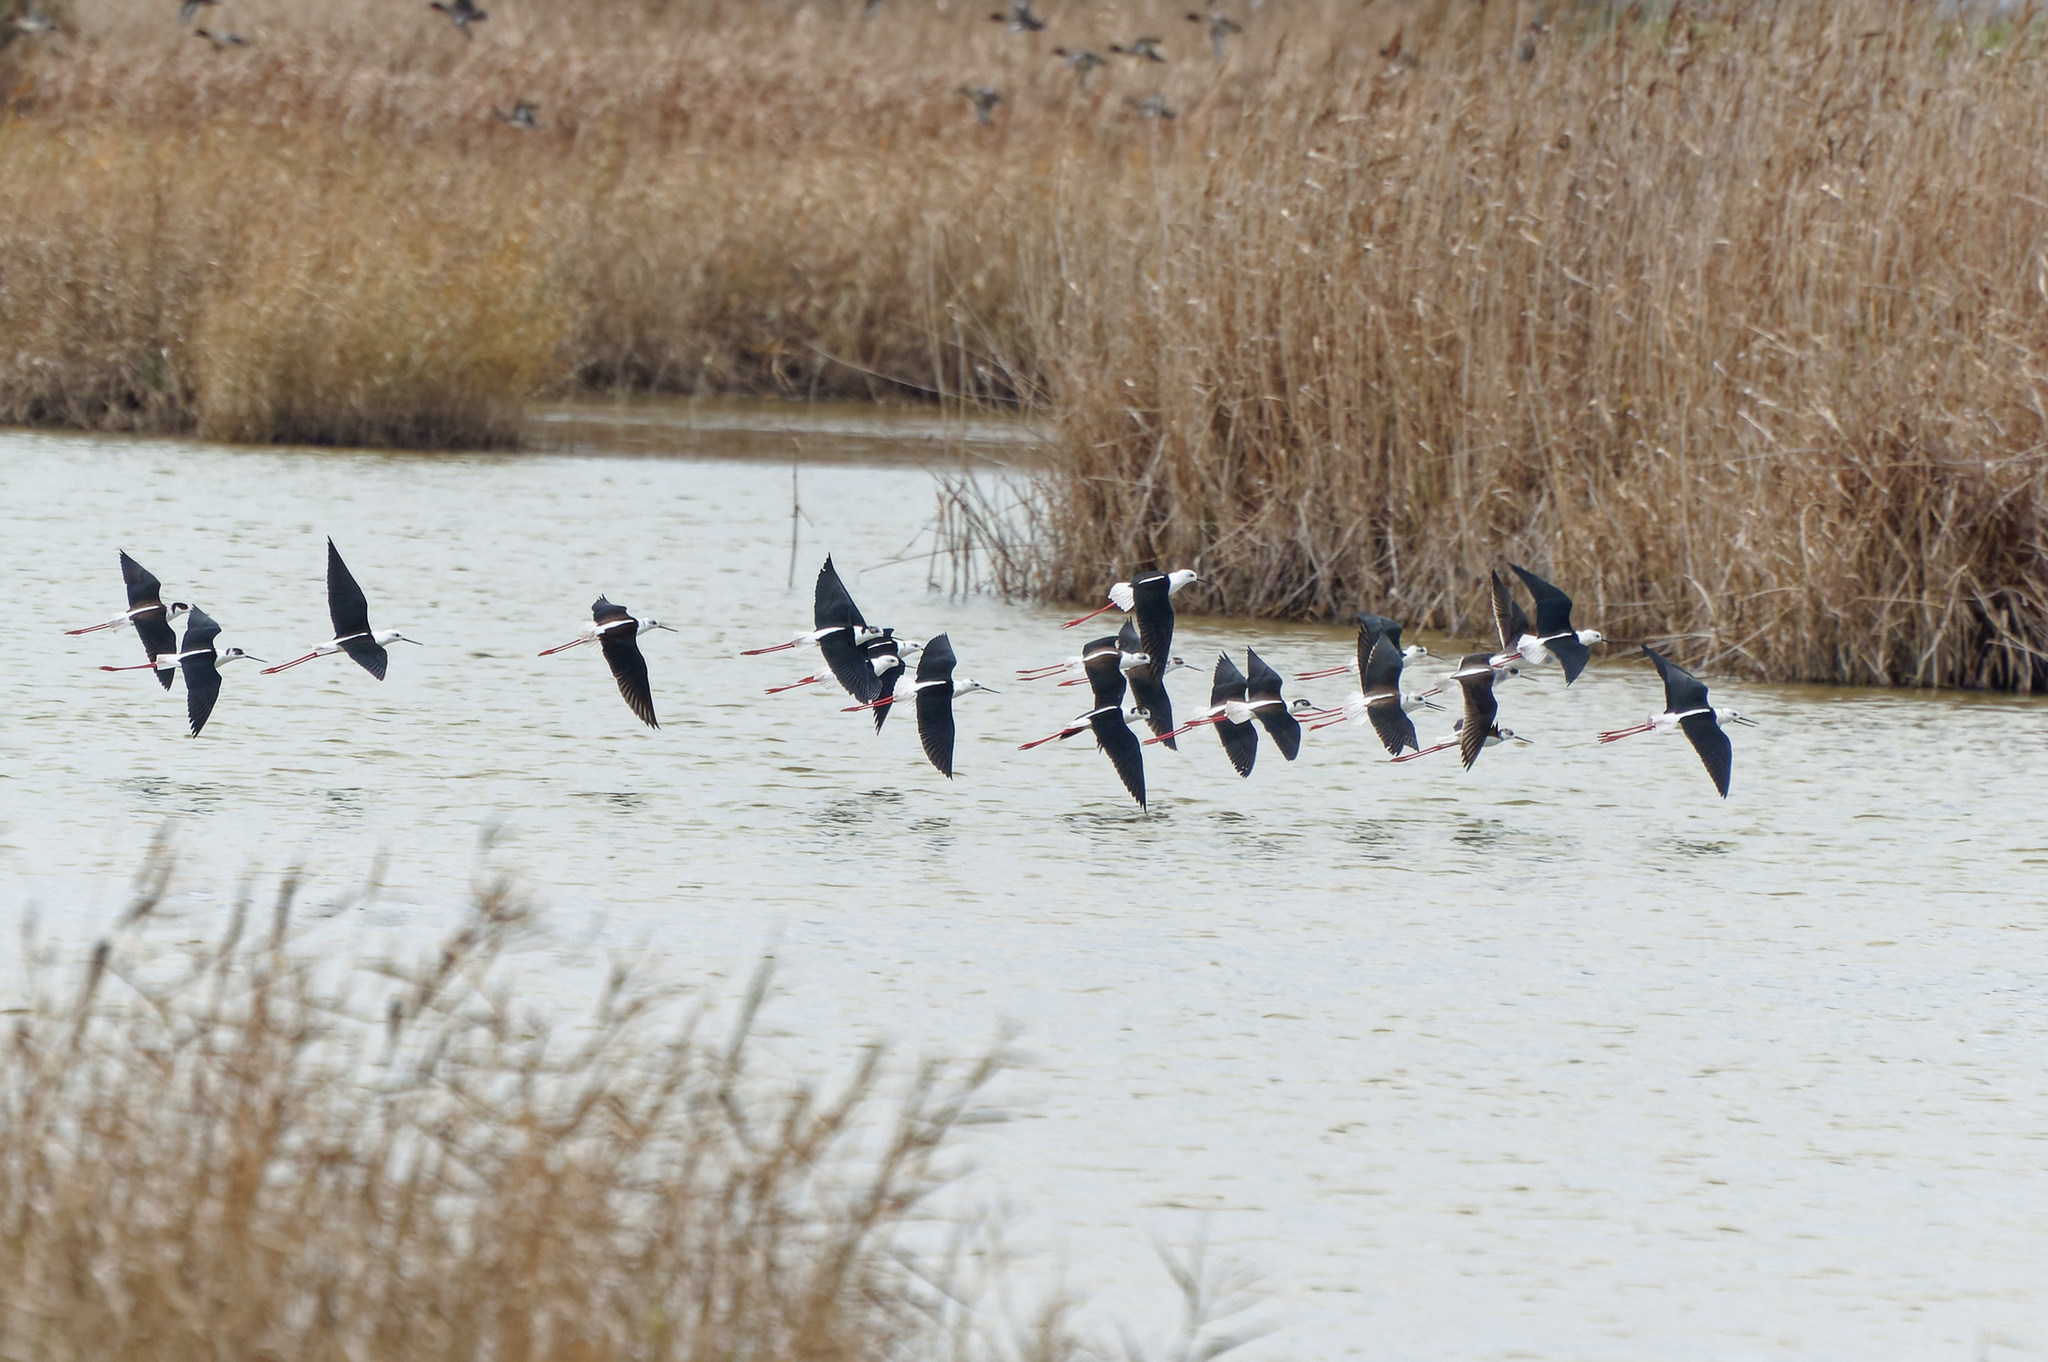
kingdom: Animalia
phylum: Chordata
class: Aves
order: Charadriiformes
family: Recurvirostridae
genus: Himantopus
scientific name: Himantopus himantopus
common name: Black-winged stilt
